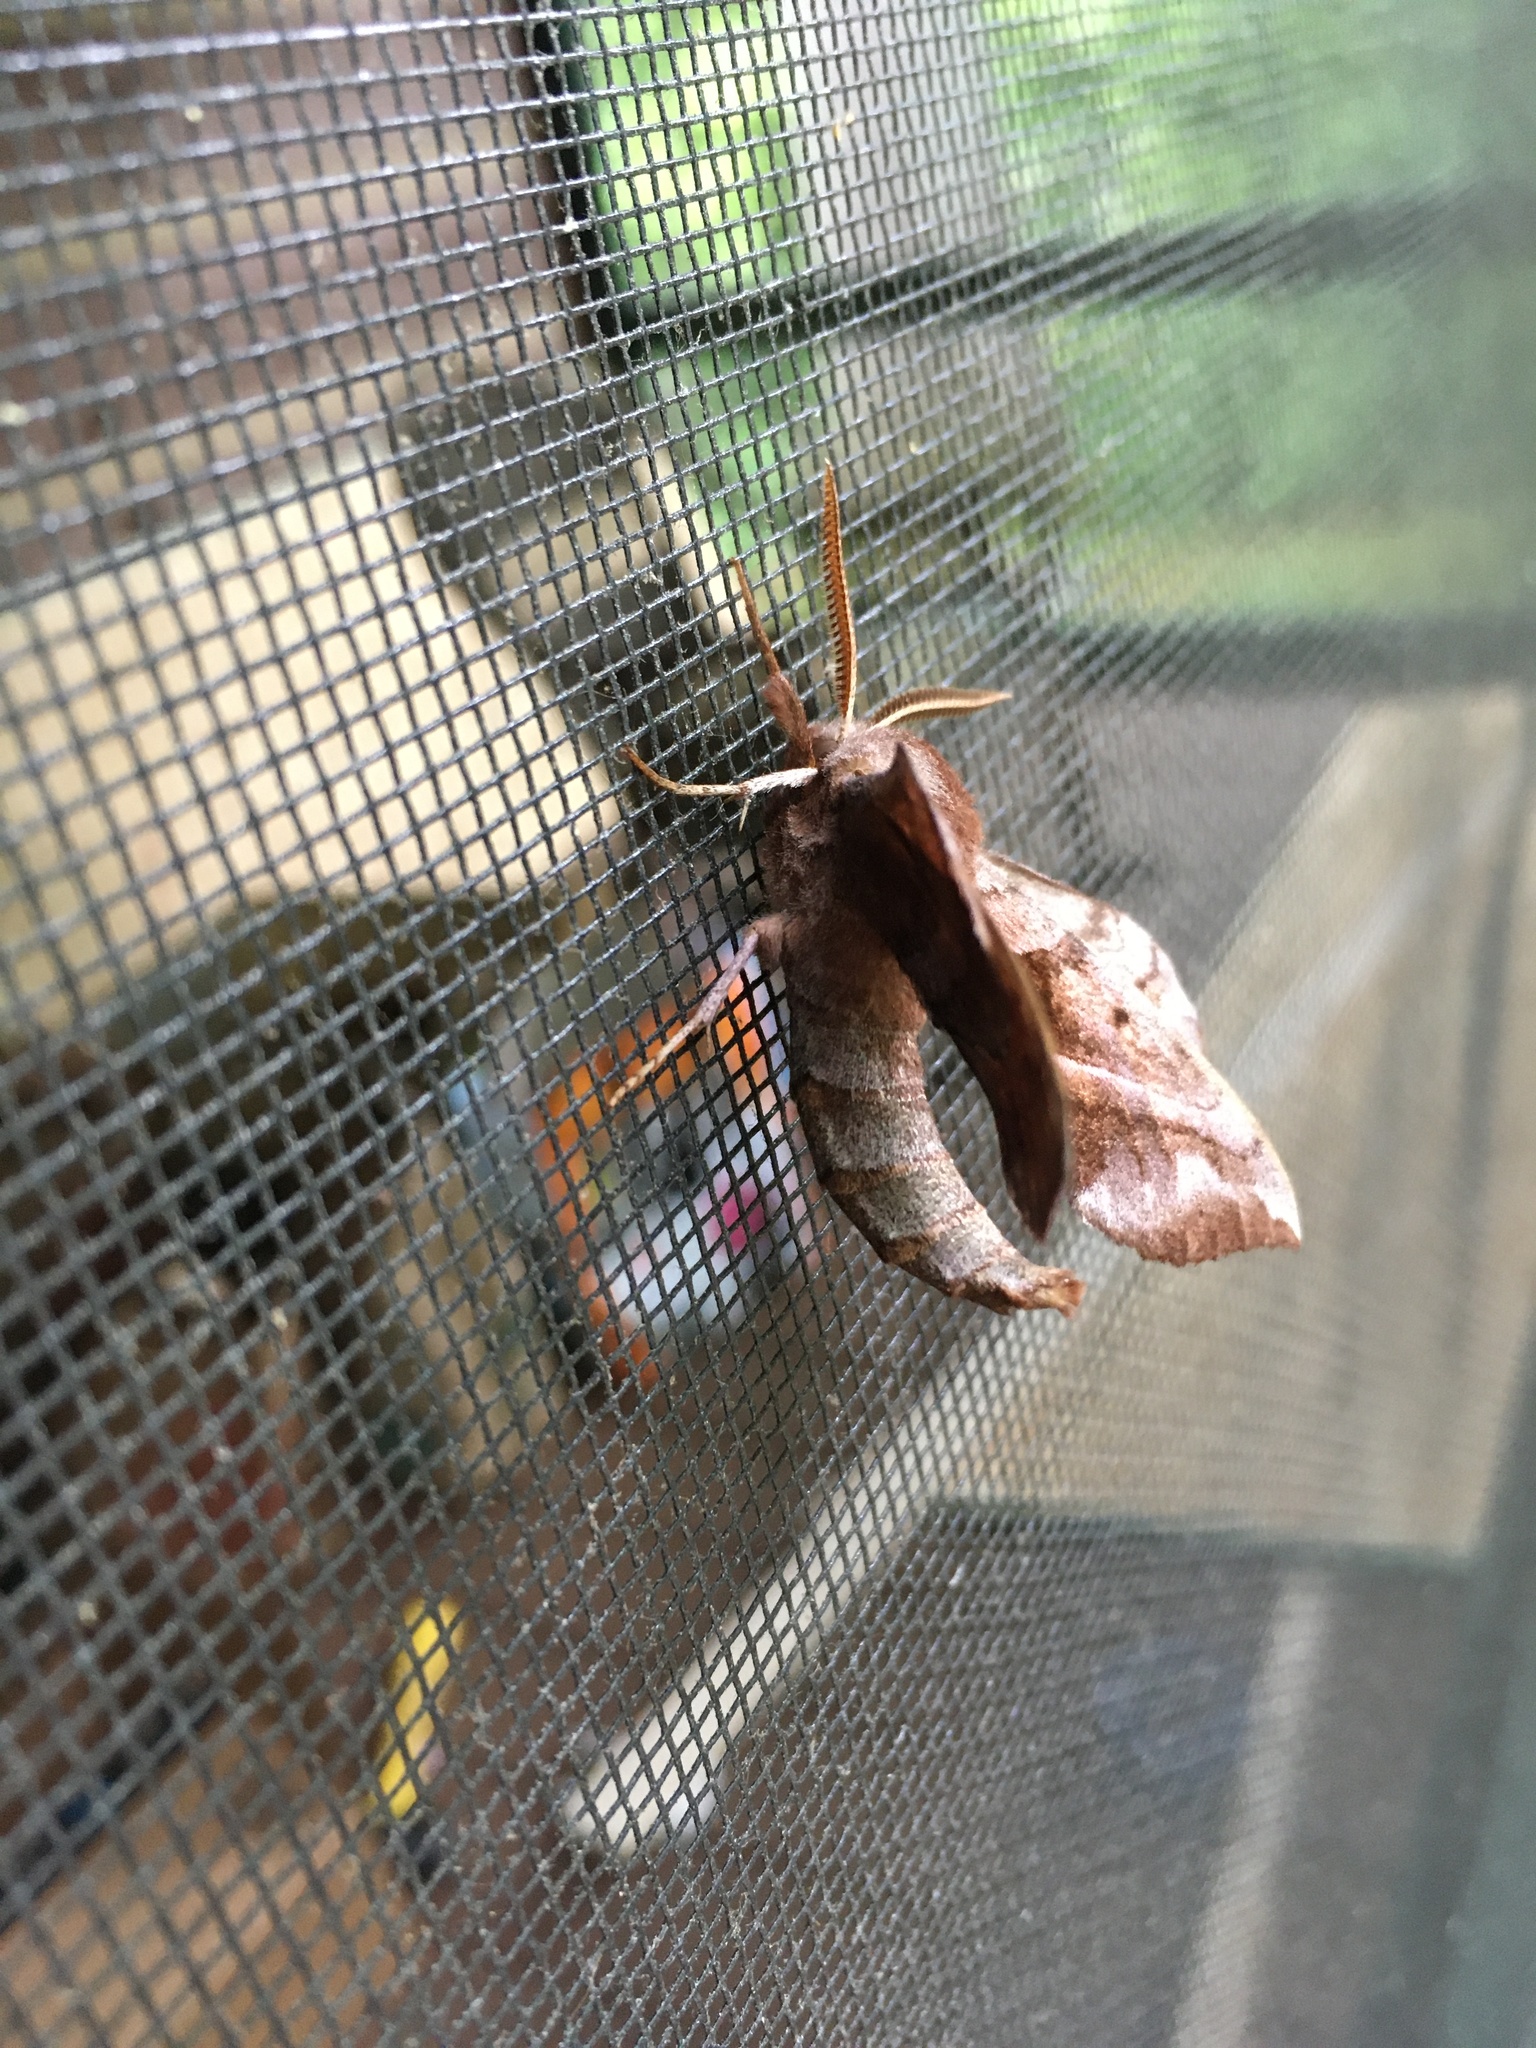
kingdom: Animalia
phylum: Arthropoda
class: Insecta
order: Lepidoptera
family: Sphingidae
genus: Amorpha
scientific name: Amorpha juglandis
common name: Walnut sphinx
